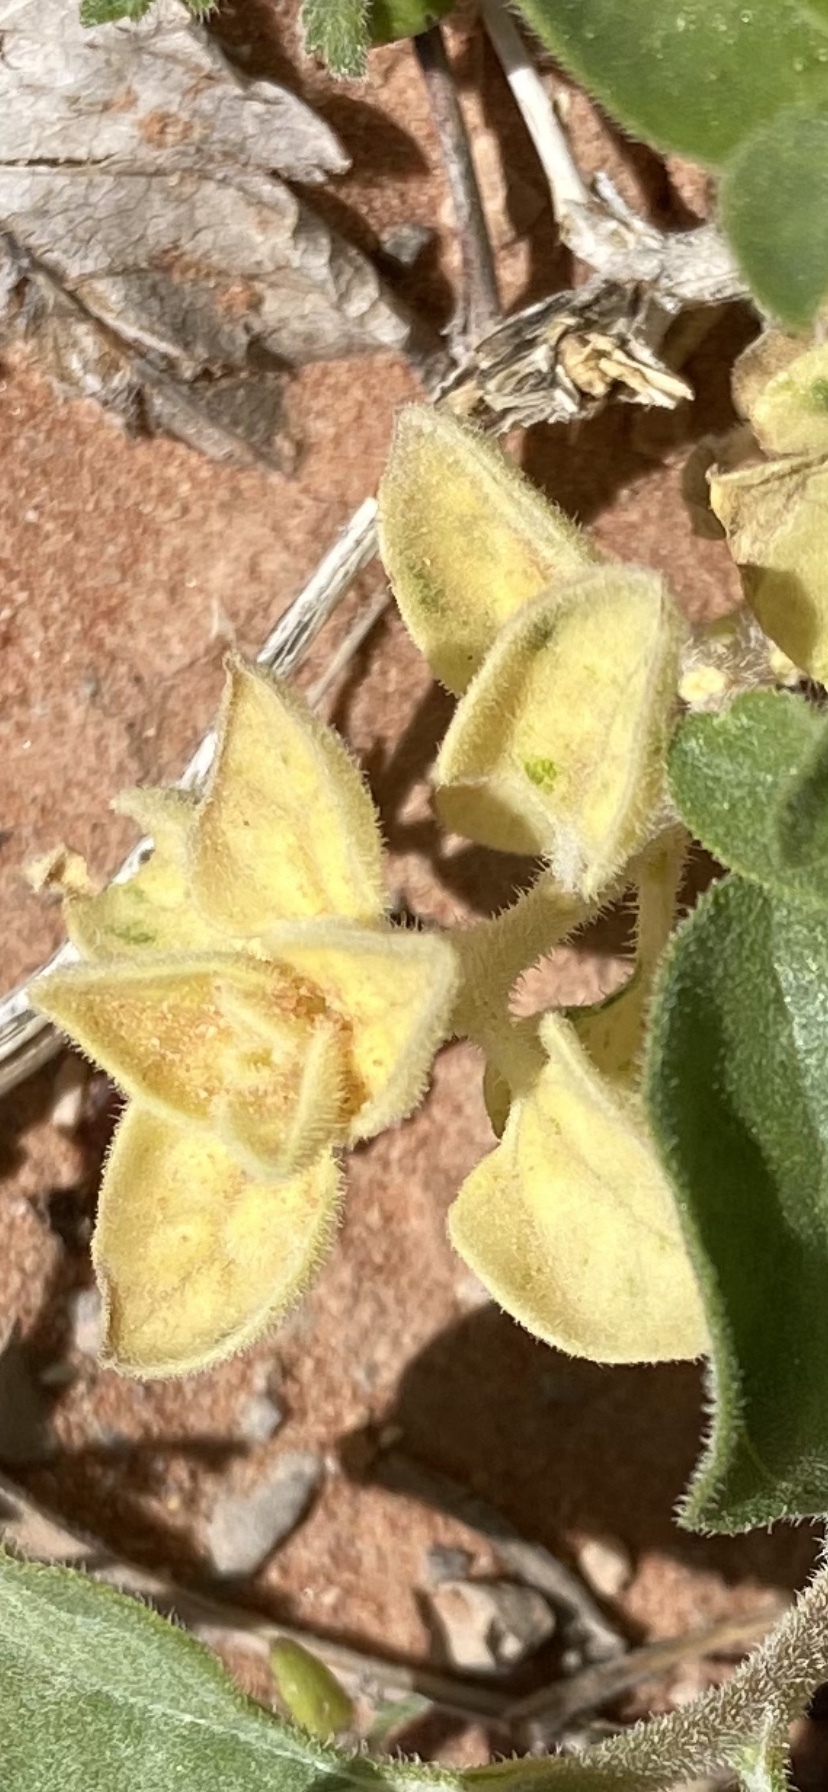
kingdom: Plantae
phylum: Tracheophyta
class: Magnoliopsida
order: Asterales
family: Asteraceae
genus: Encelia
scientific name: Encelia virginensis
